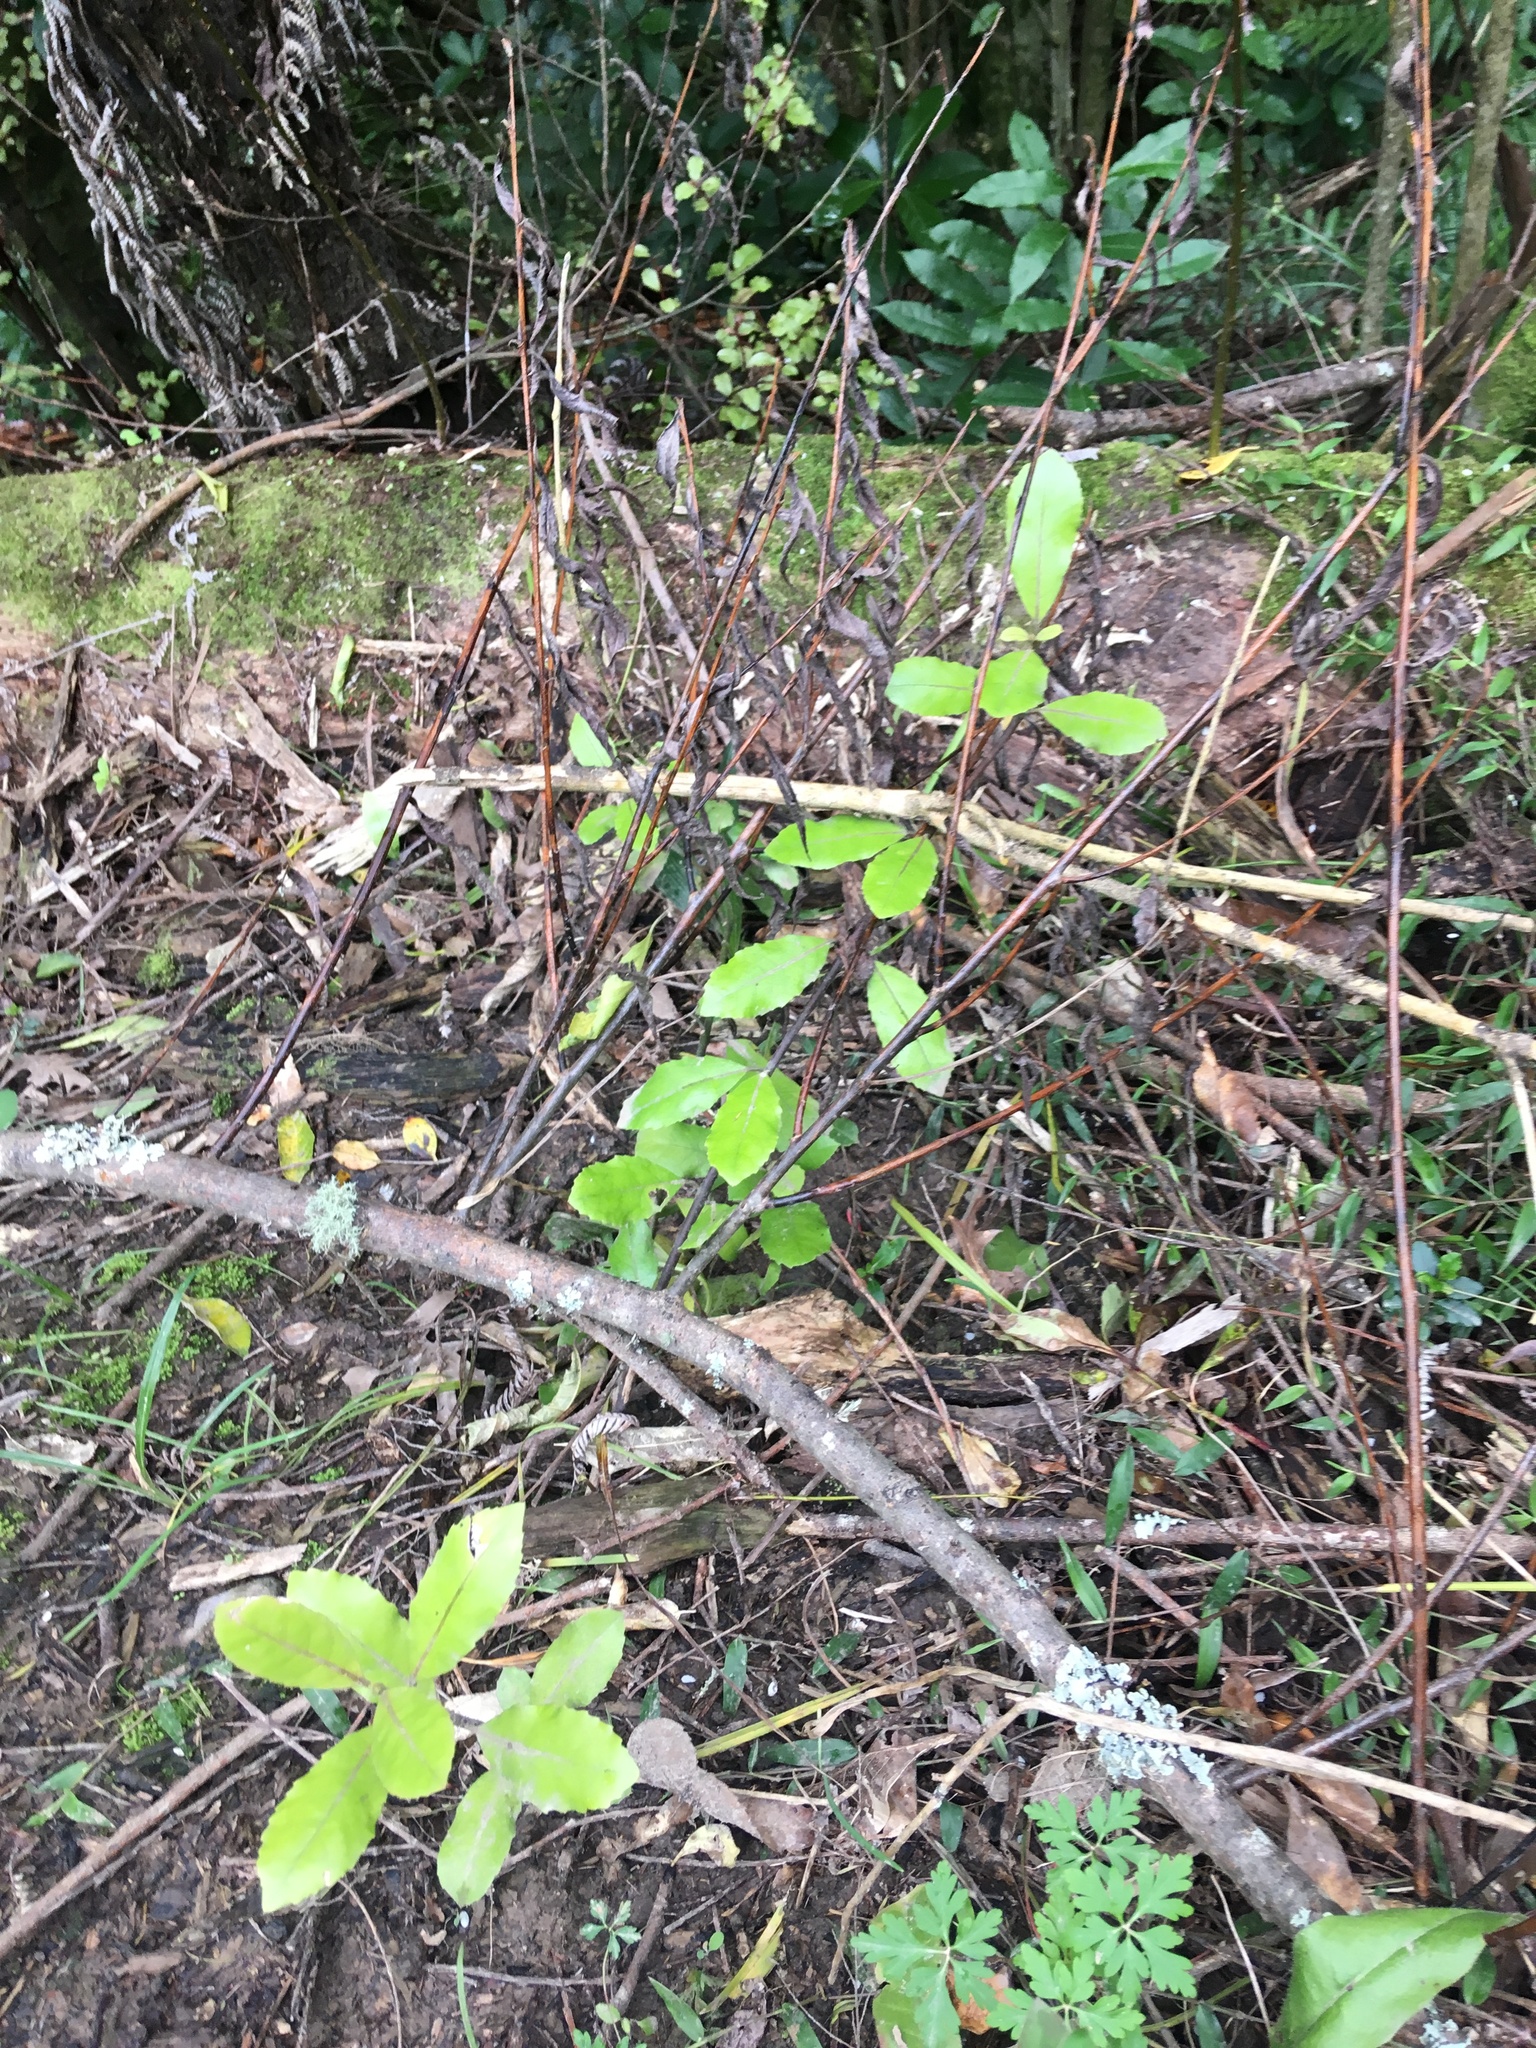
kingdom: Plantae
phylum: Tracheophyta
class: Magnoliopsida
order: Laurales
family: Monimiaceae
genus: Hedycarya
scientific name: Hedycarya arborea
